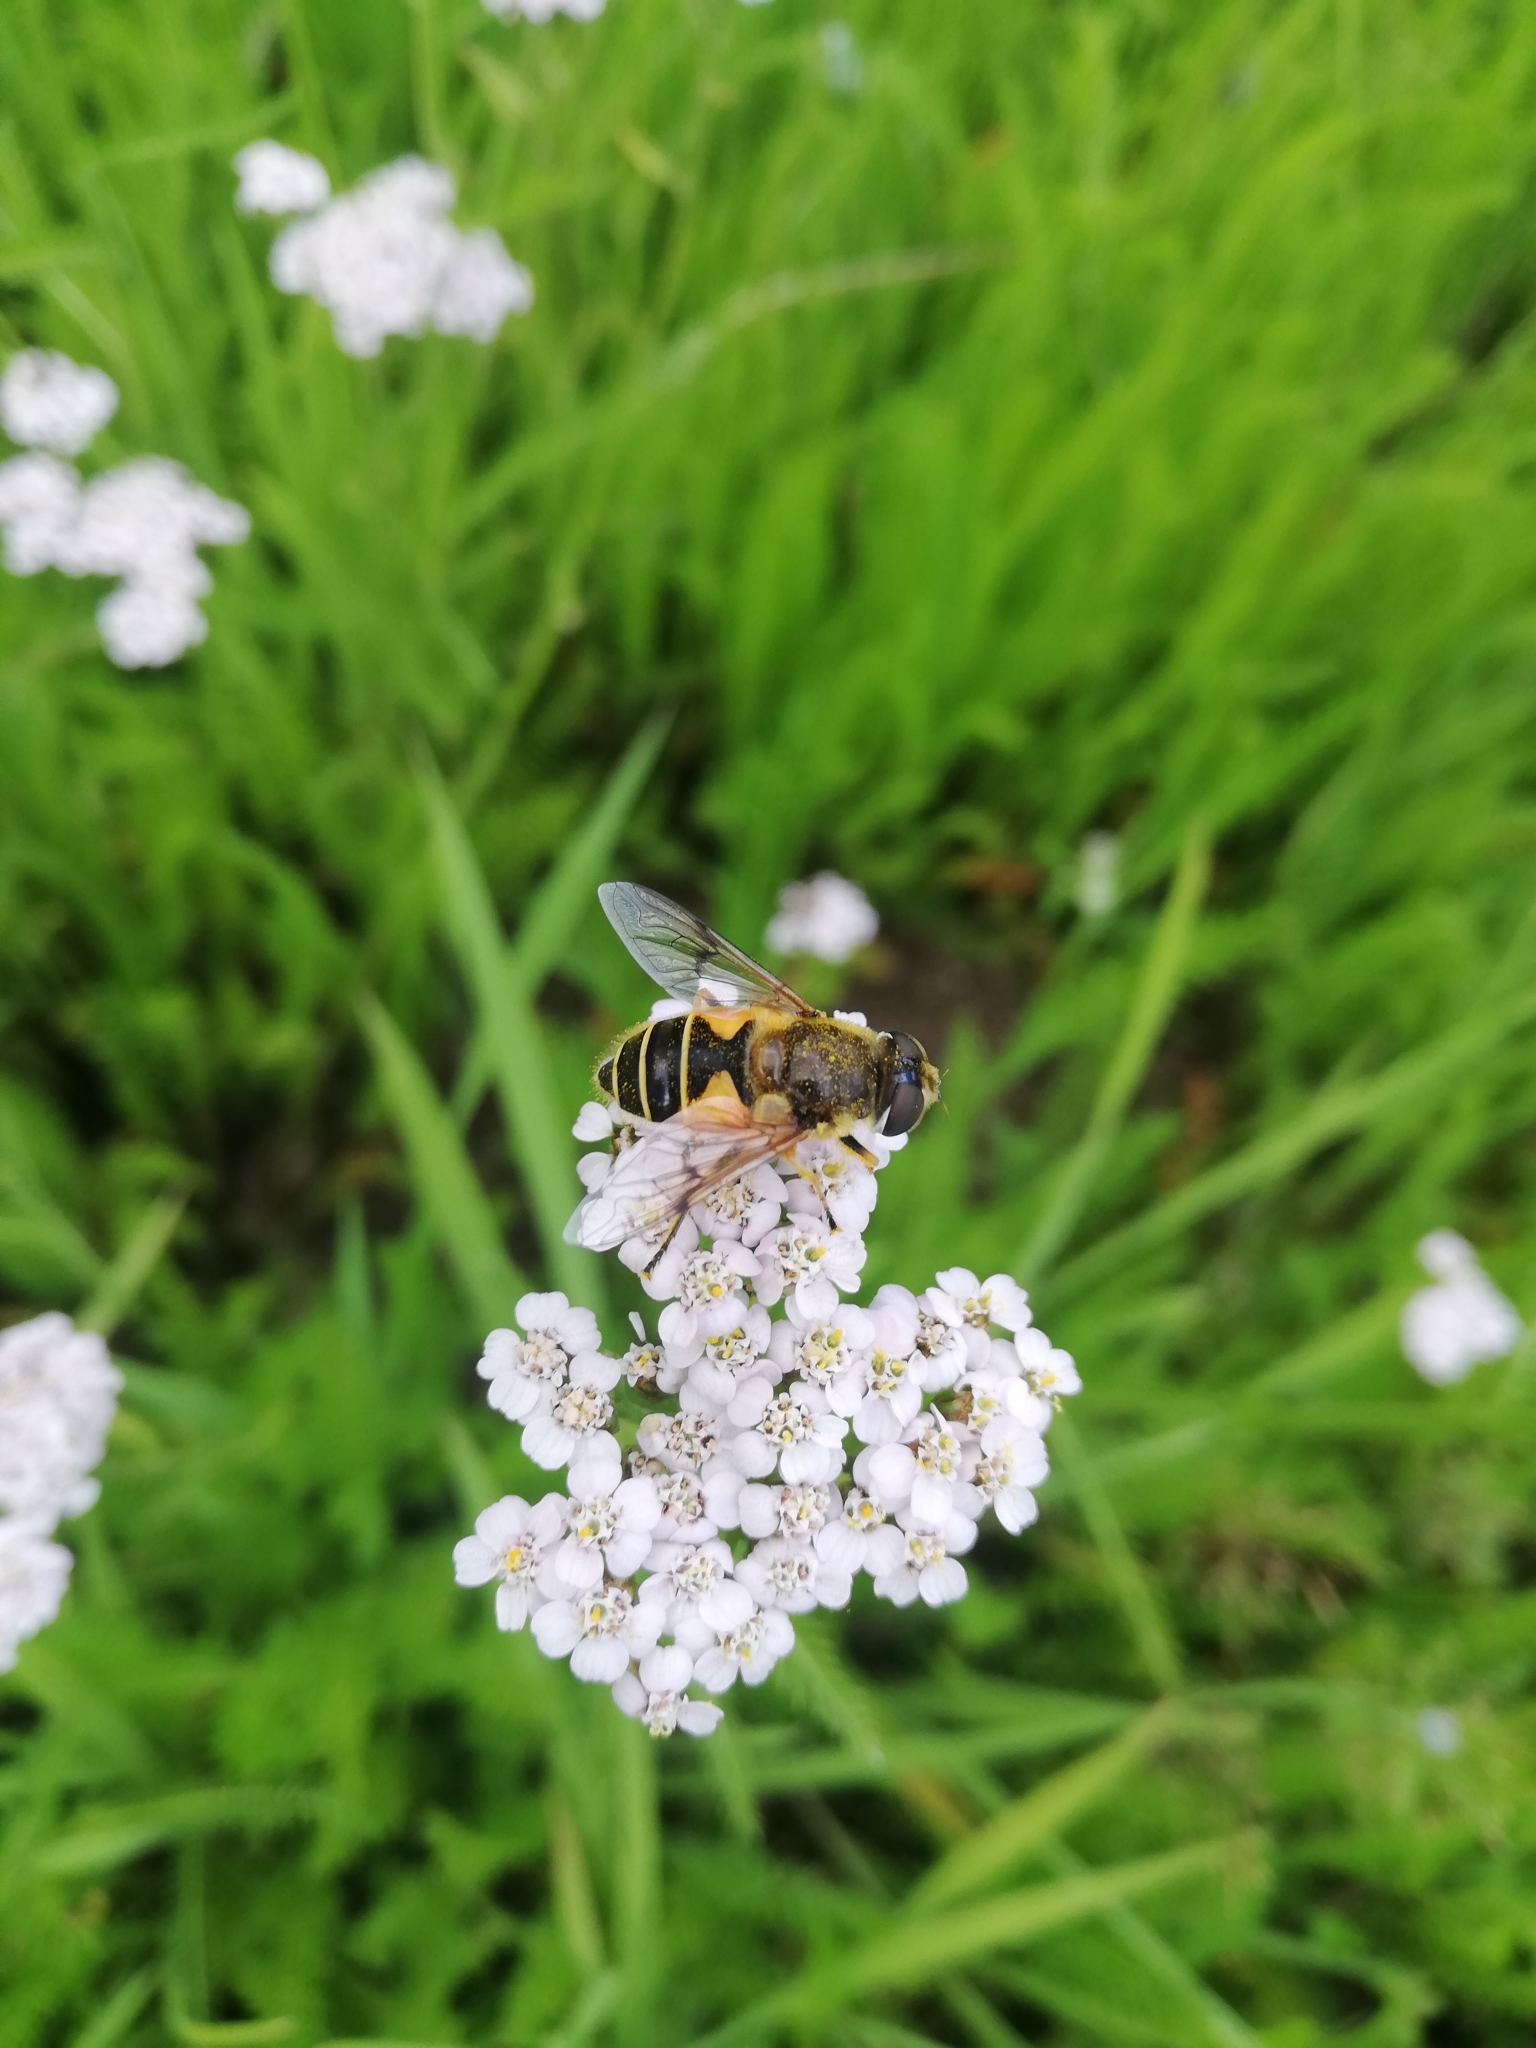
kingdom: Animalia
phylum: Arthropoda
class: Insecta
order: Diptera
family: Syrphidae
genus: Cheilosia
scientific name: Cheilosia morio
